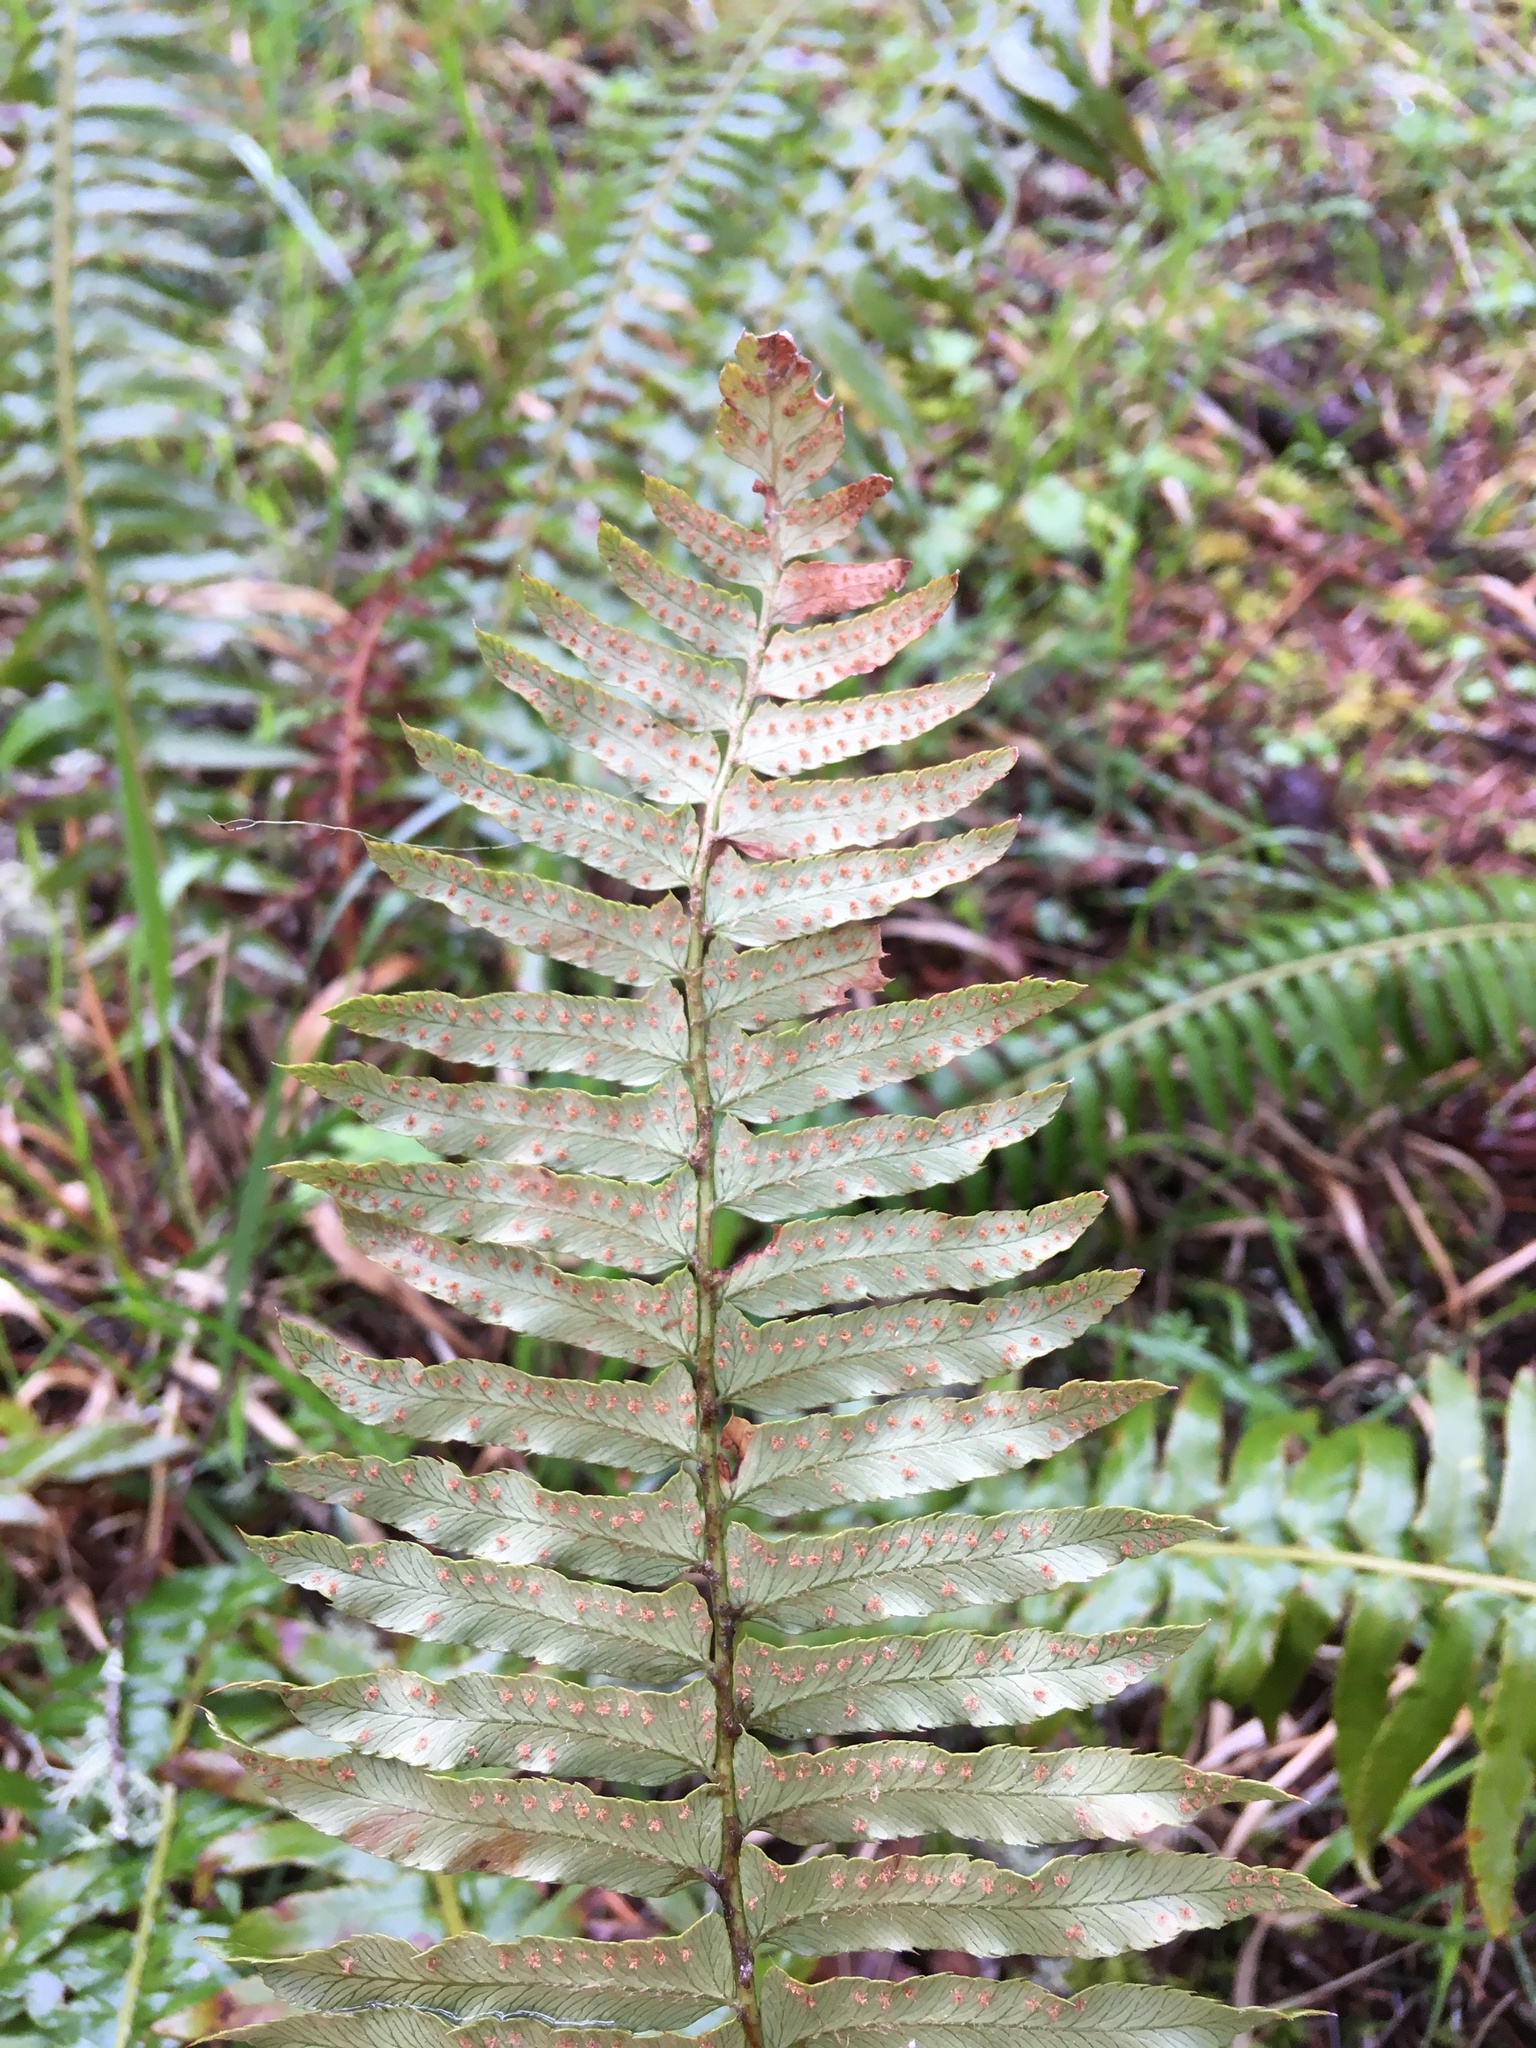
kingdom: Plantae
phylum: Tracheophyta
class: Polypodiopsida
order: Polypodiales
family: Dryopteridaceae
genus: Polystichum
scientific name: Polystichum munitum
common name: Western sword-fern
